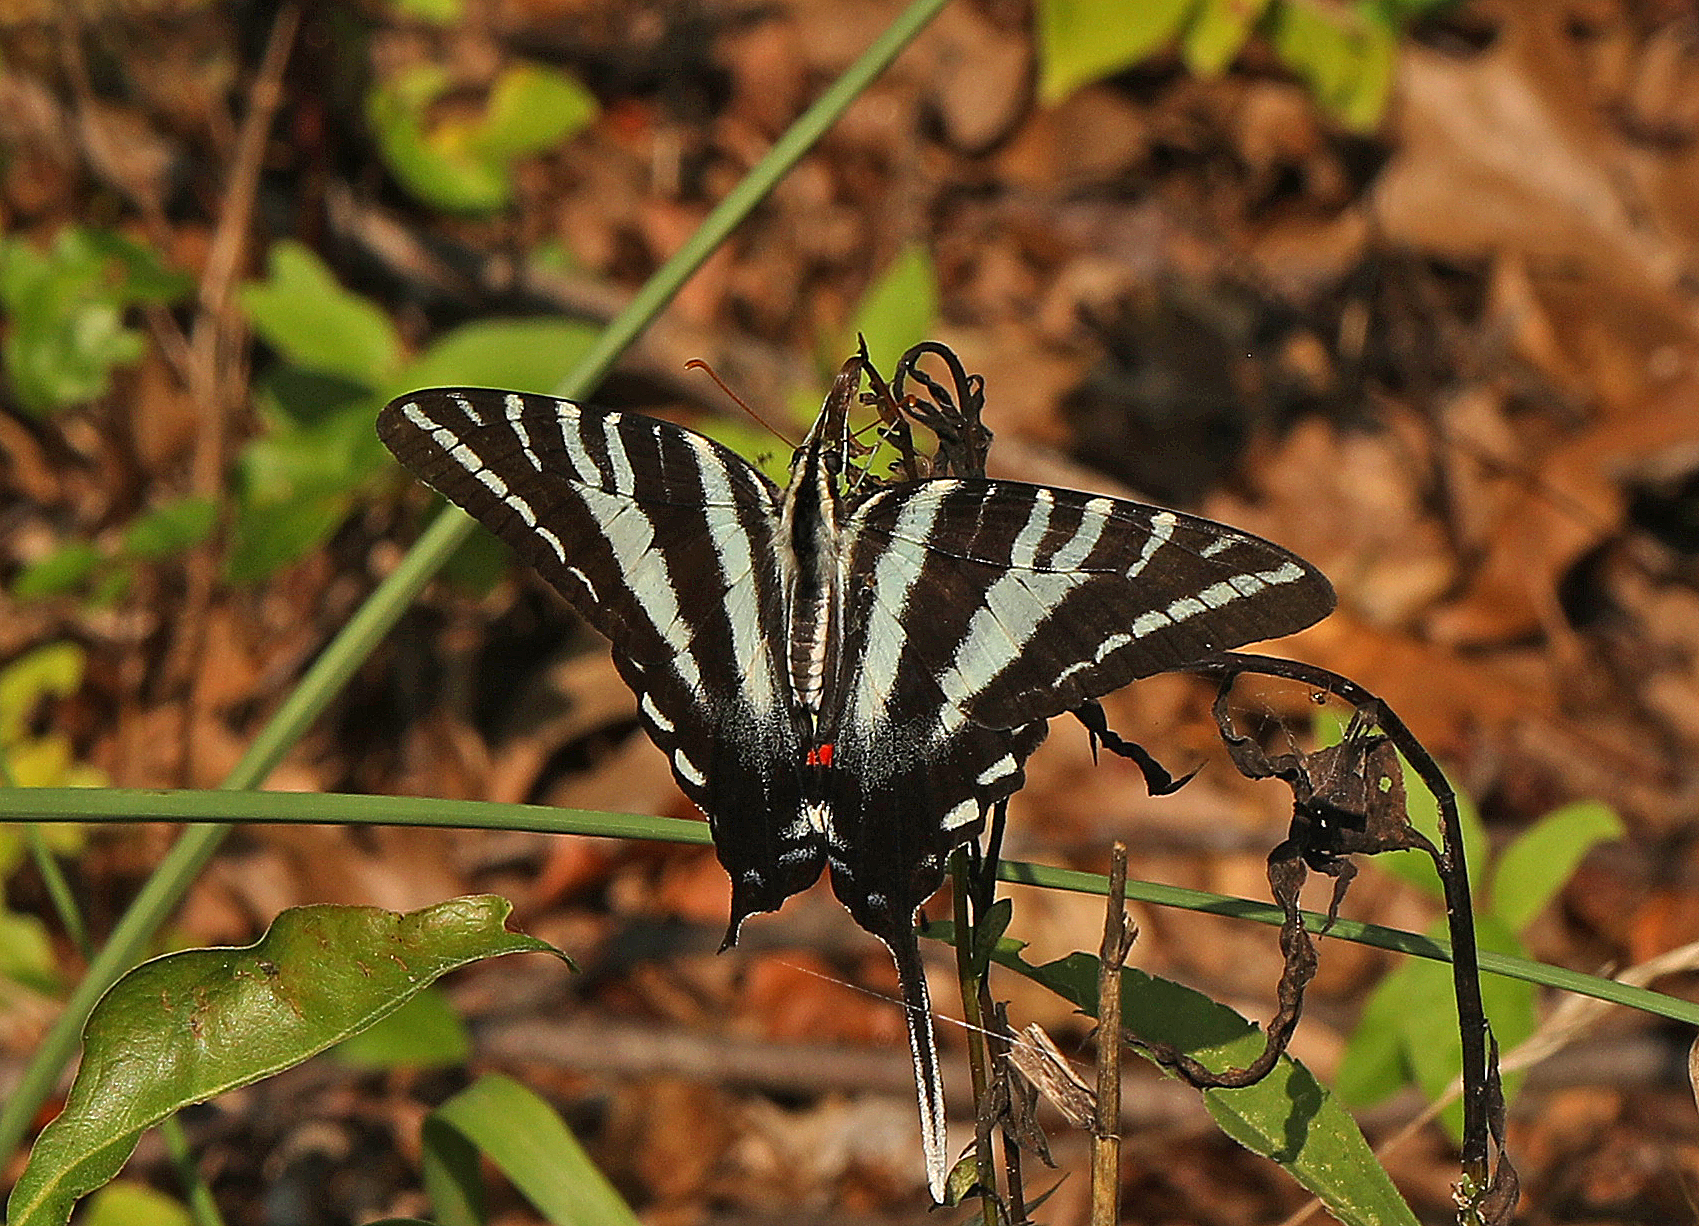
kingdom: Animalia
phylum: Arthropoda
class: Insecta
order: Lepidoptera
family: Papilionidae
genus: Protographium
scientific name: Protographium marcellus
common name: Zebra swallowtail
